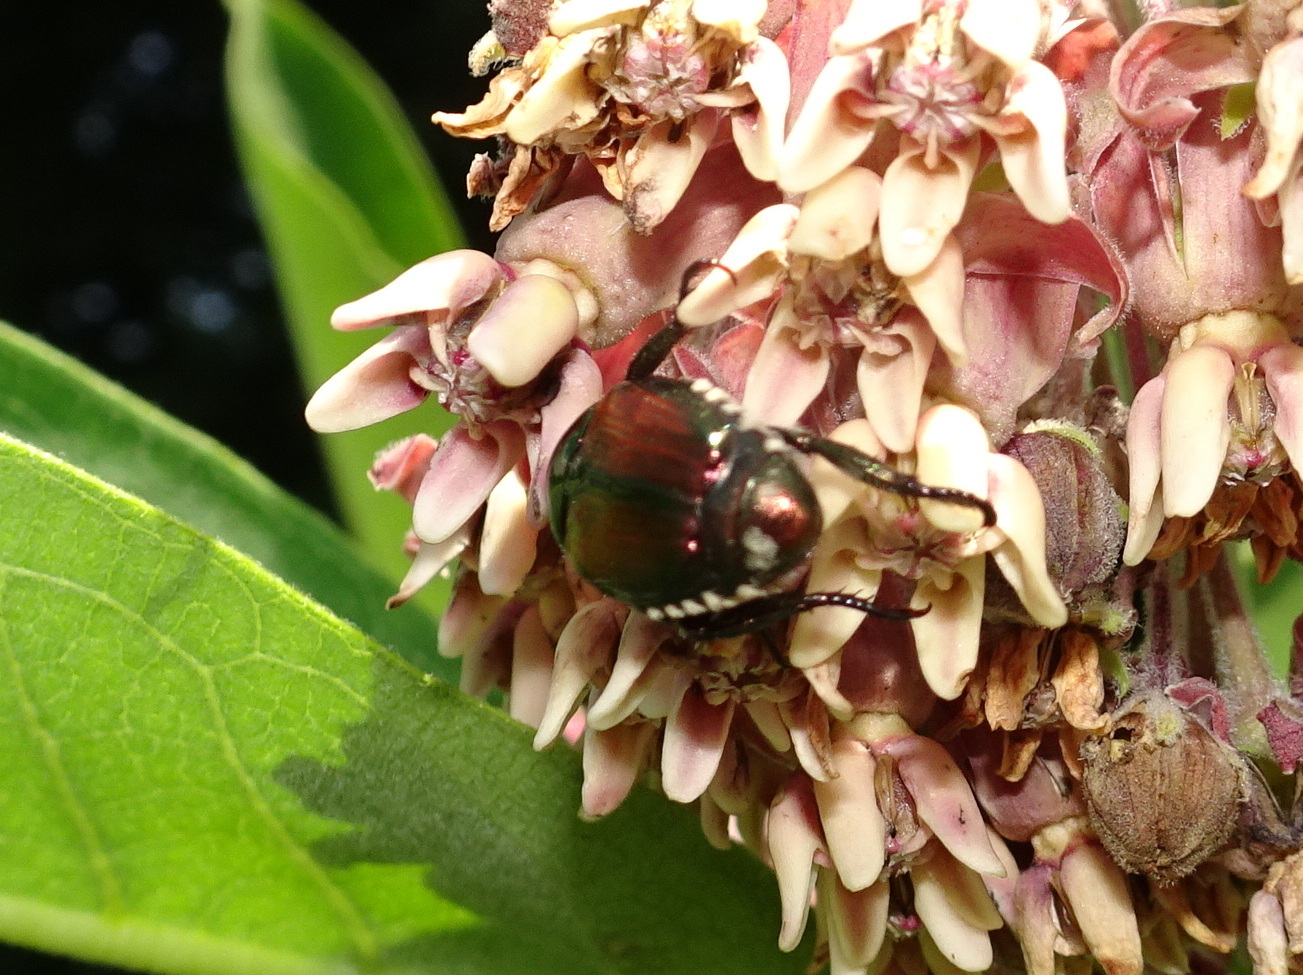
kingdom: Animalia
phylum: Arthropoda
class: Insecta
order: Coleoptera
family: Scarabaeidae
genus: Popillia
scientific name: Popillia japonica
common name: Japanese beetle
